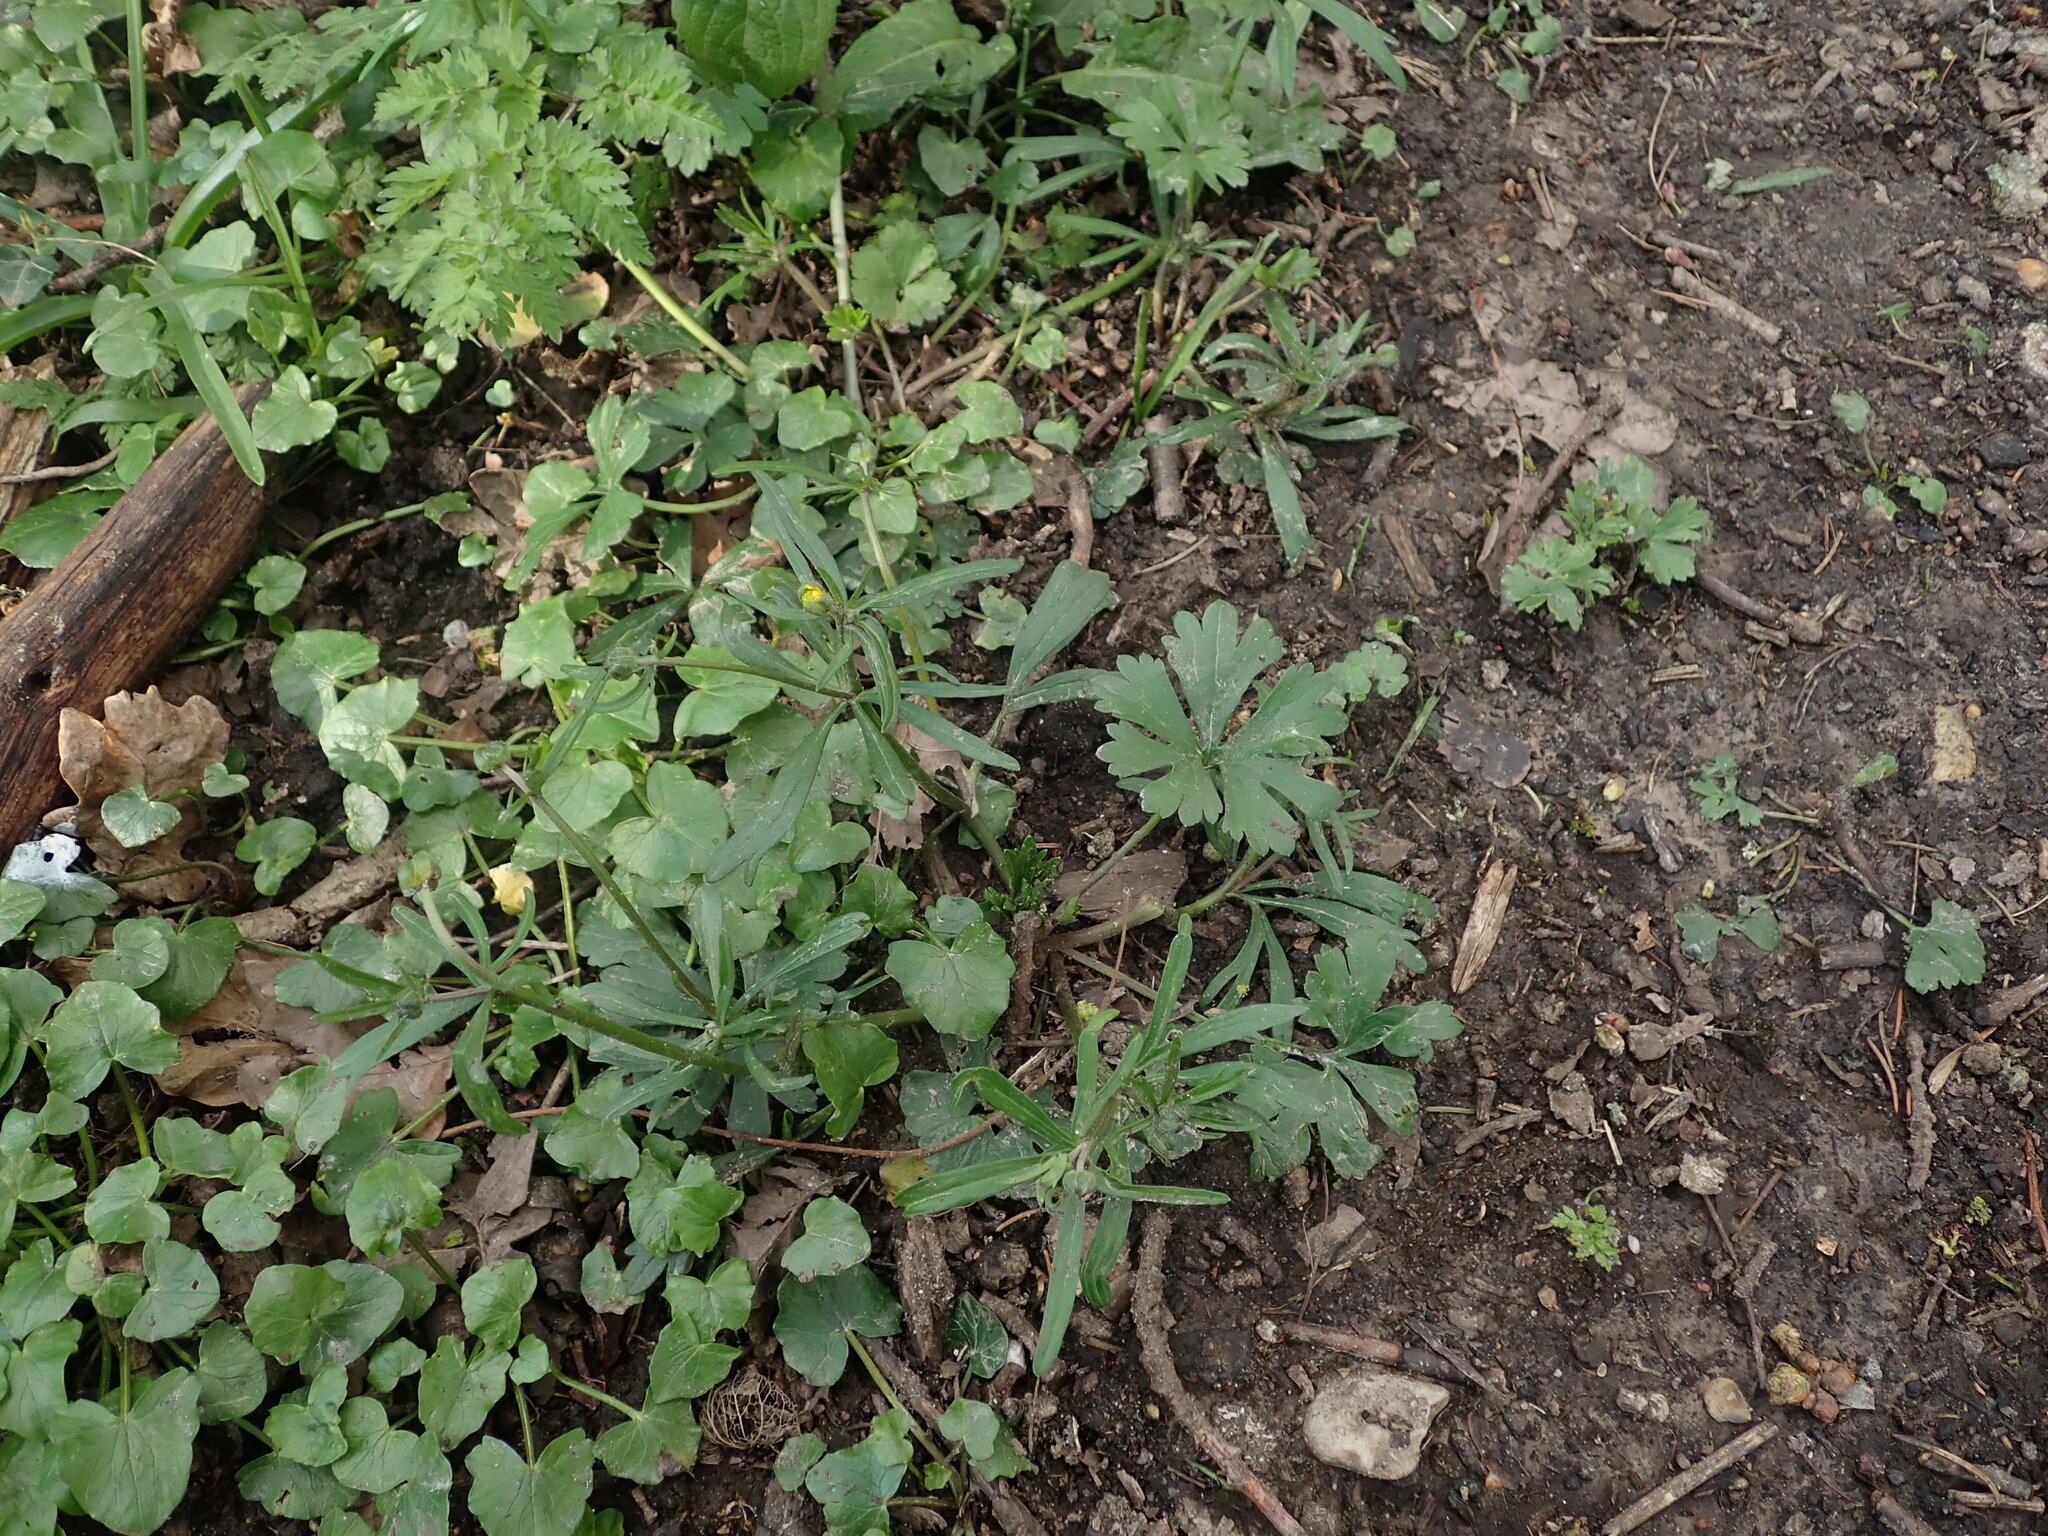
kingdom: Plantae
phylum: Tracheophyta
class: Magnoliopsida
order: Ranunculales
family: Ranunculaceae
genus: Ranunculus
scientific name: Ranunculus auricomus
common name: Goldilocks buttercup
